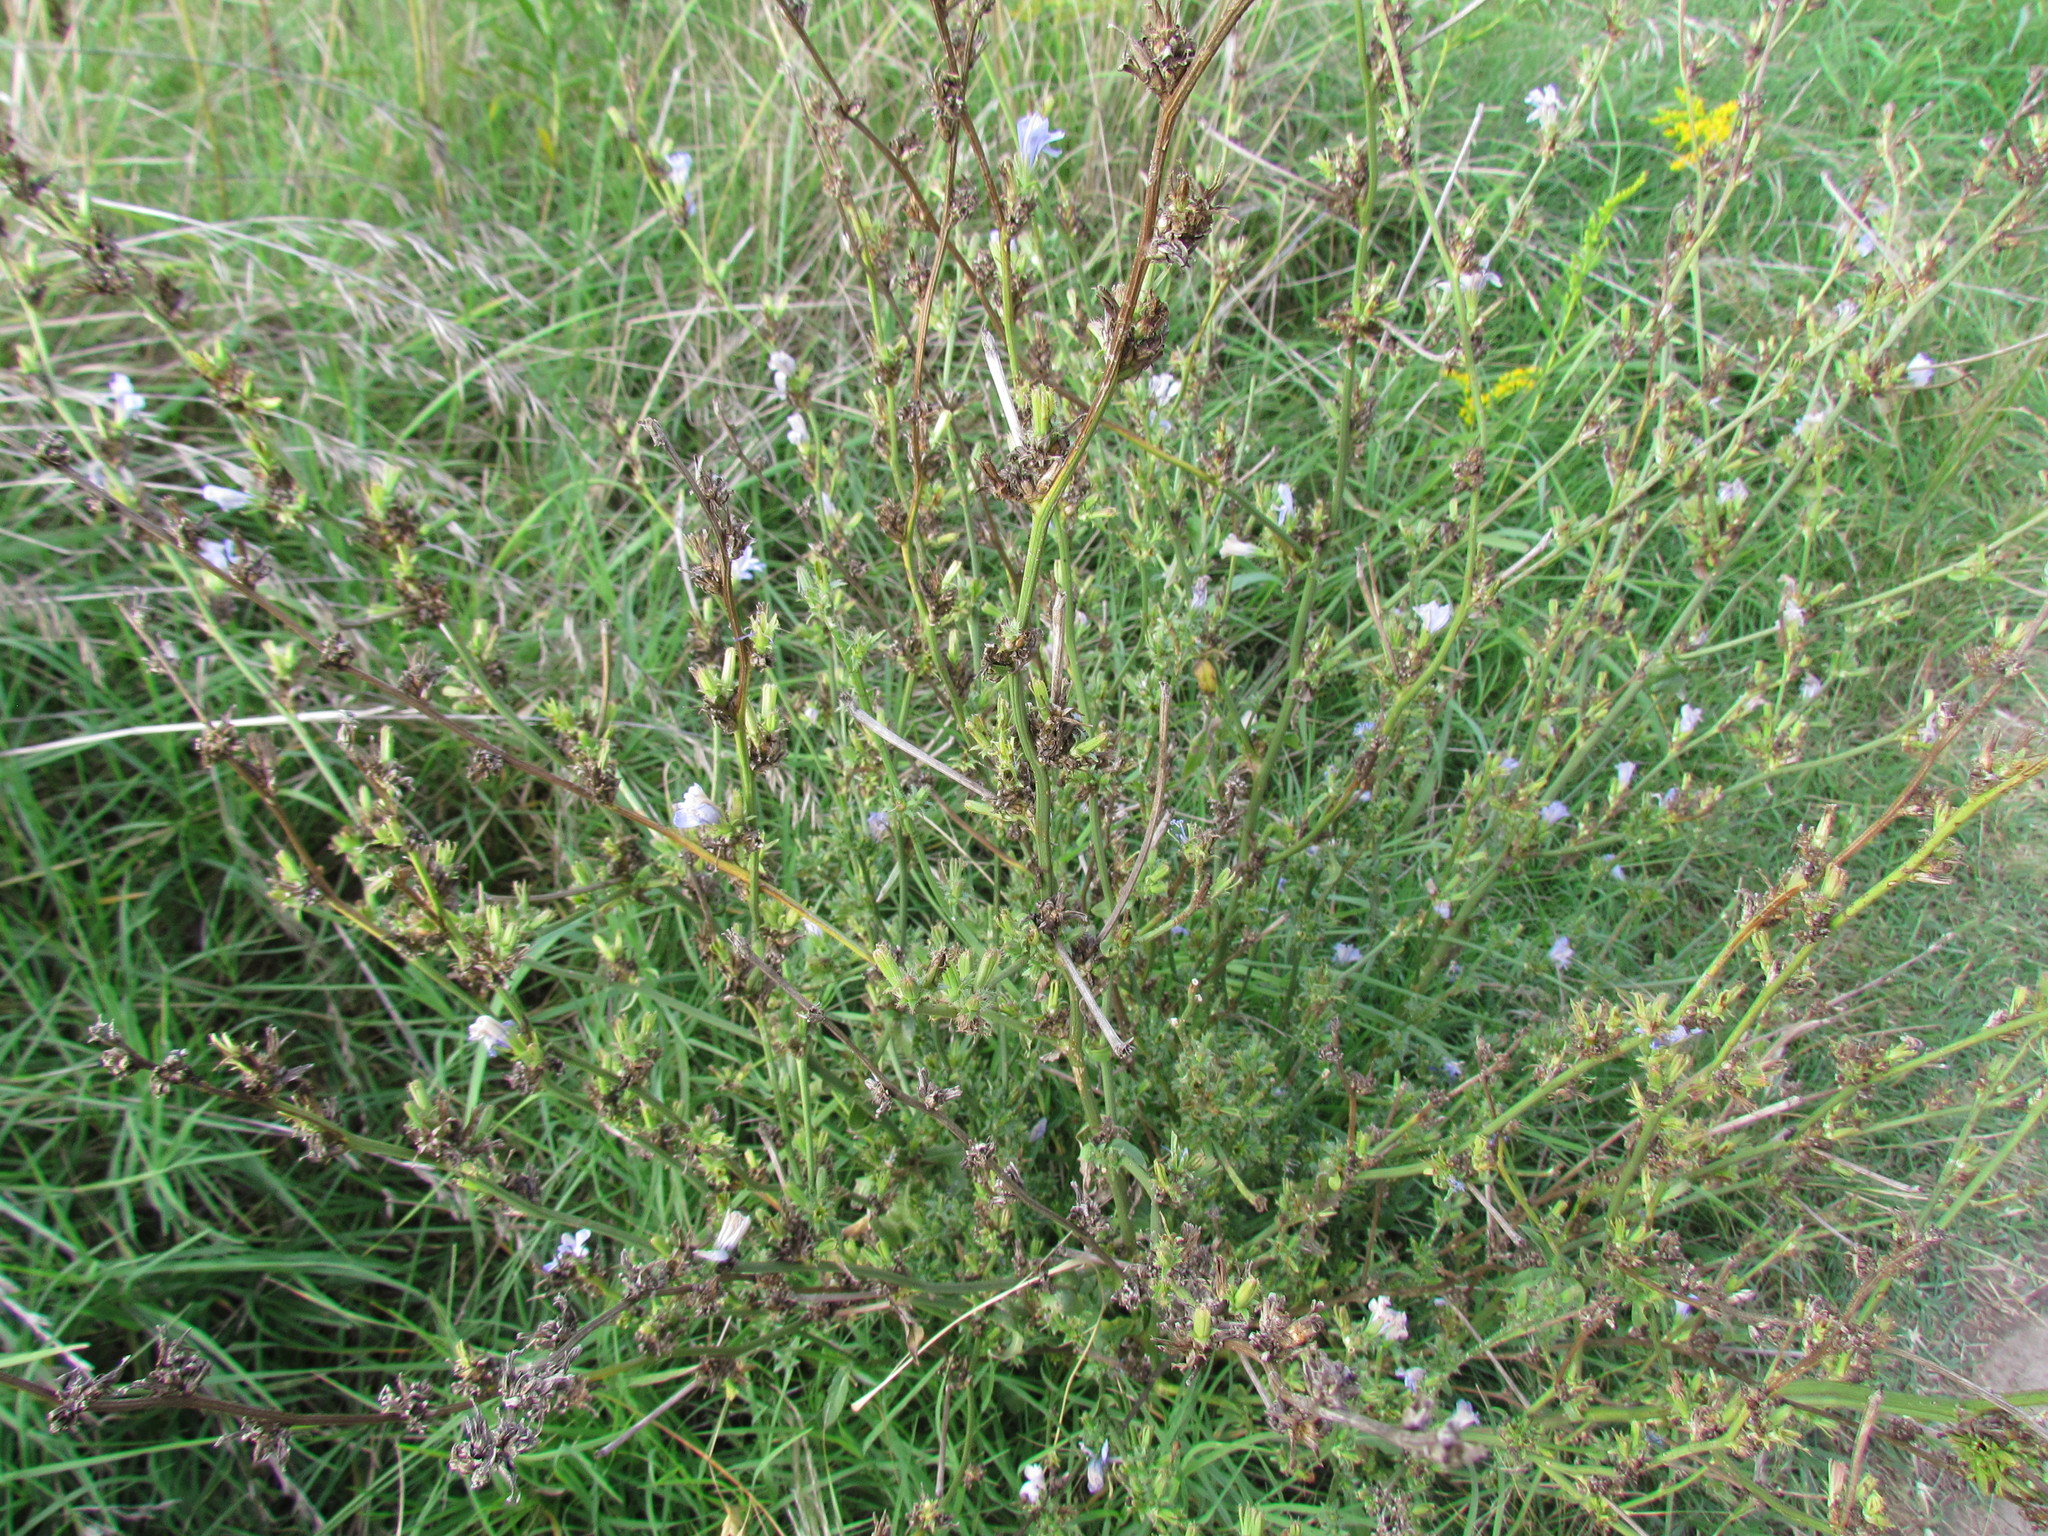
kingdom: Plantae
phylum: Tracheophyta
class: Magnoliopsida
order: Asterales
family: Asteraceae
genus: Cichorium
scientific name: Cichorium intybus
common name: Chicory
